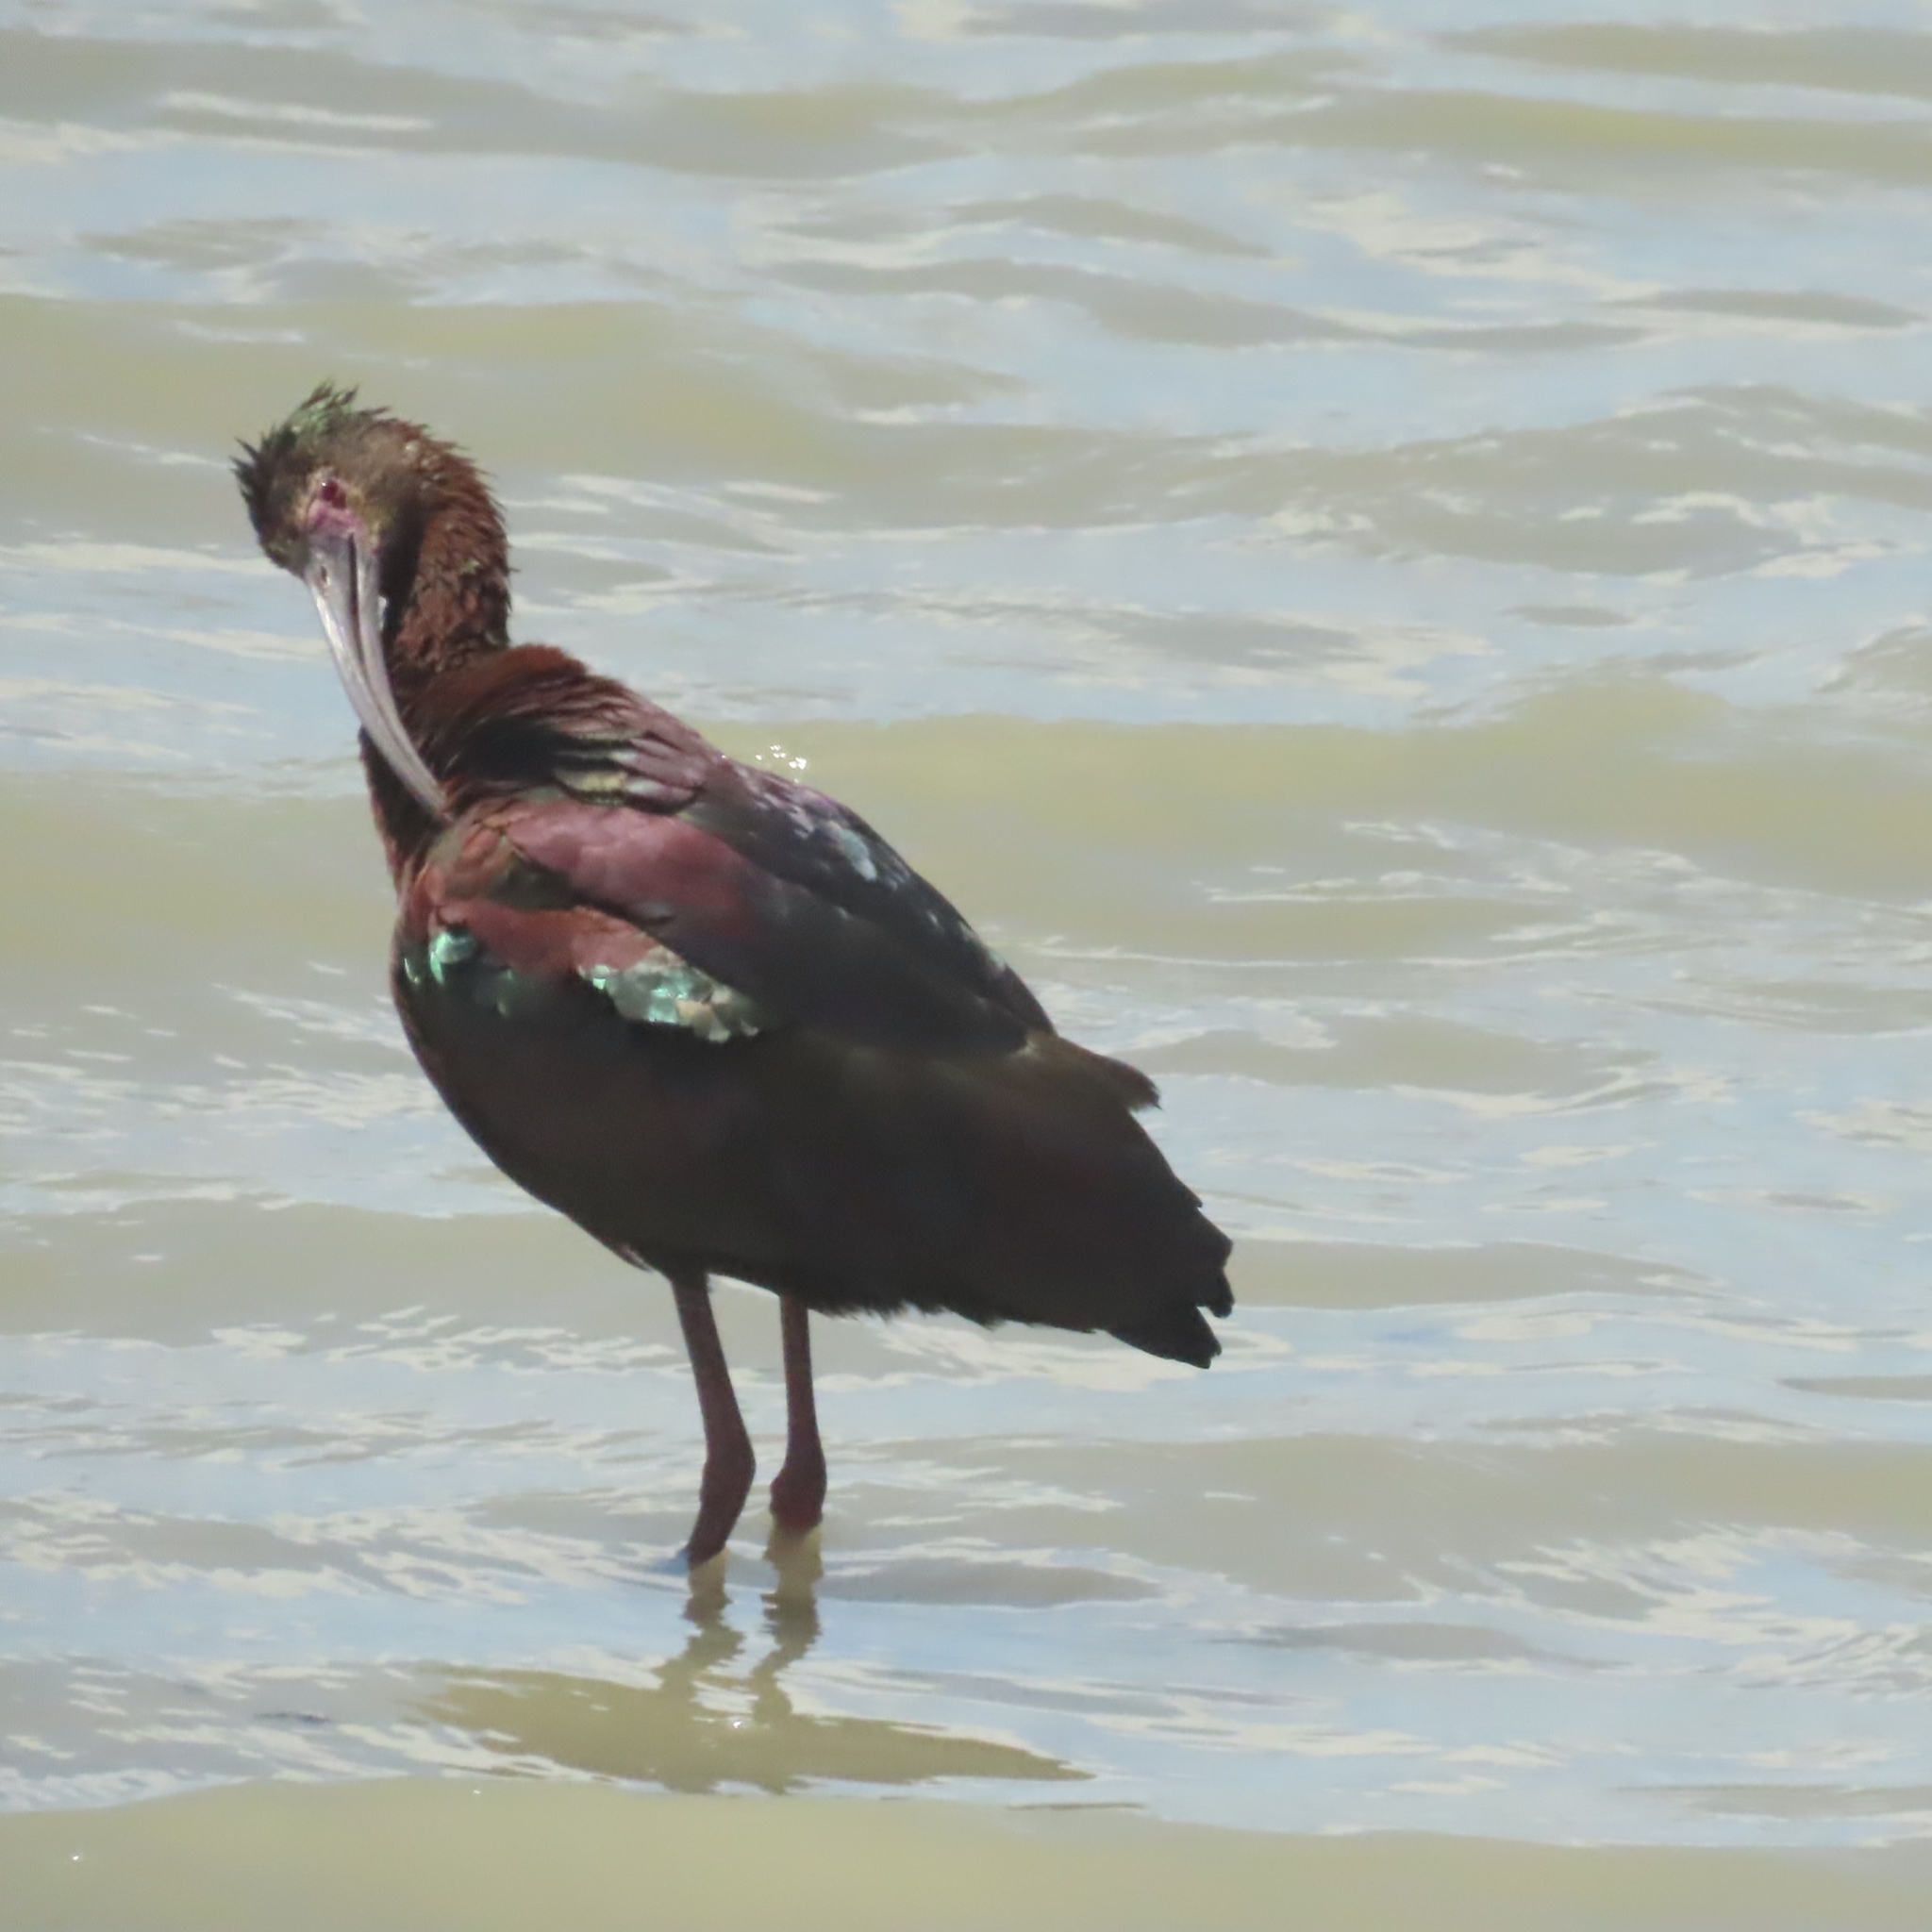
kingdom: Animalia
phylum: Chordata
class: Aves
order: Pelecaniformes
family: Threskiornithidae
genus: Plegadis
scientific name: Plegadis chihi
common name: White-faced ibis
